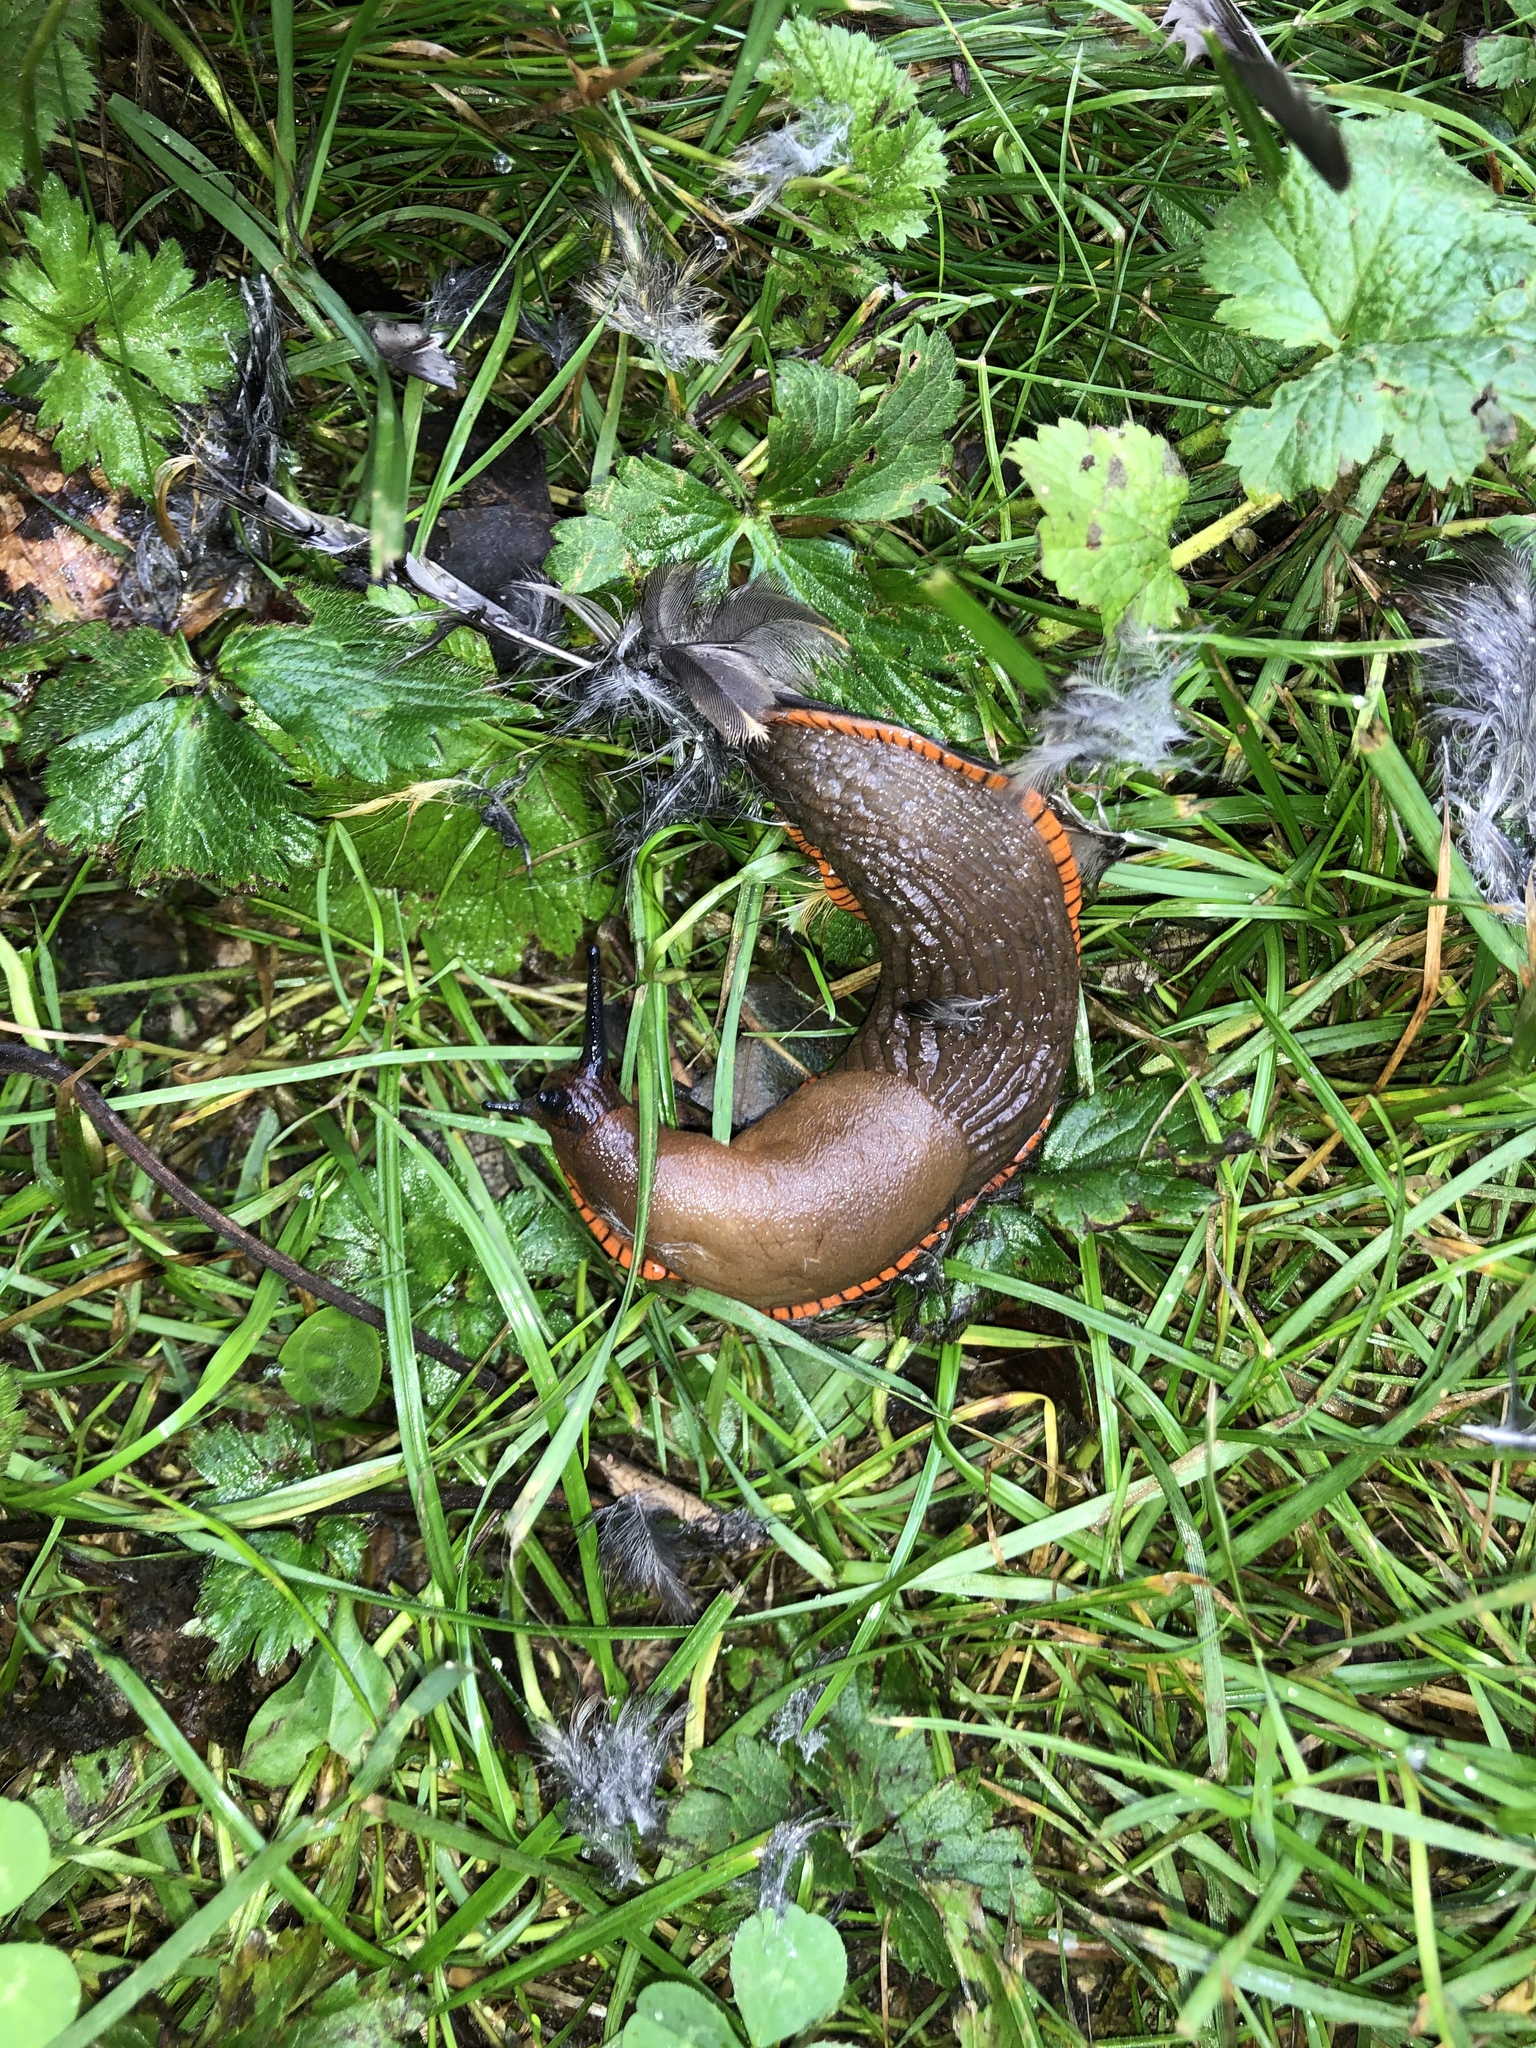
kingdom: Animalia
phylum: Mollusca
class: Gastropoda
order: Stylommatophora
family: Arionidae
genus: Arion
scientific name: Arion rufus
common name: Chocolate arion
